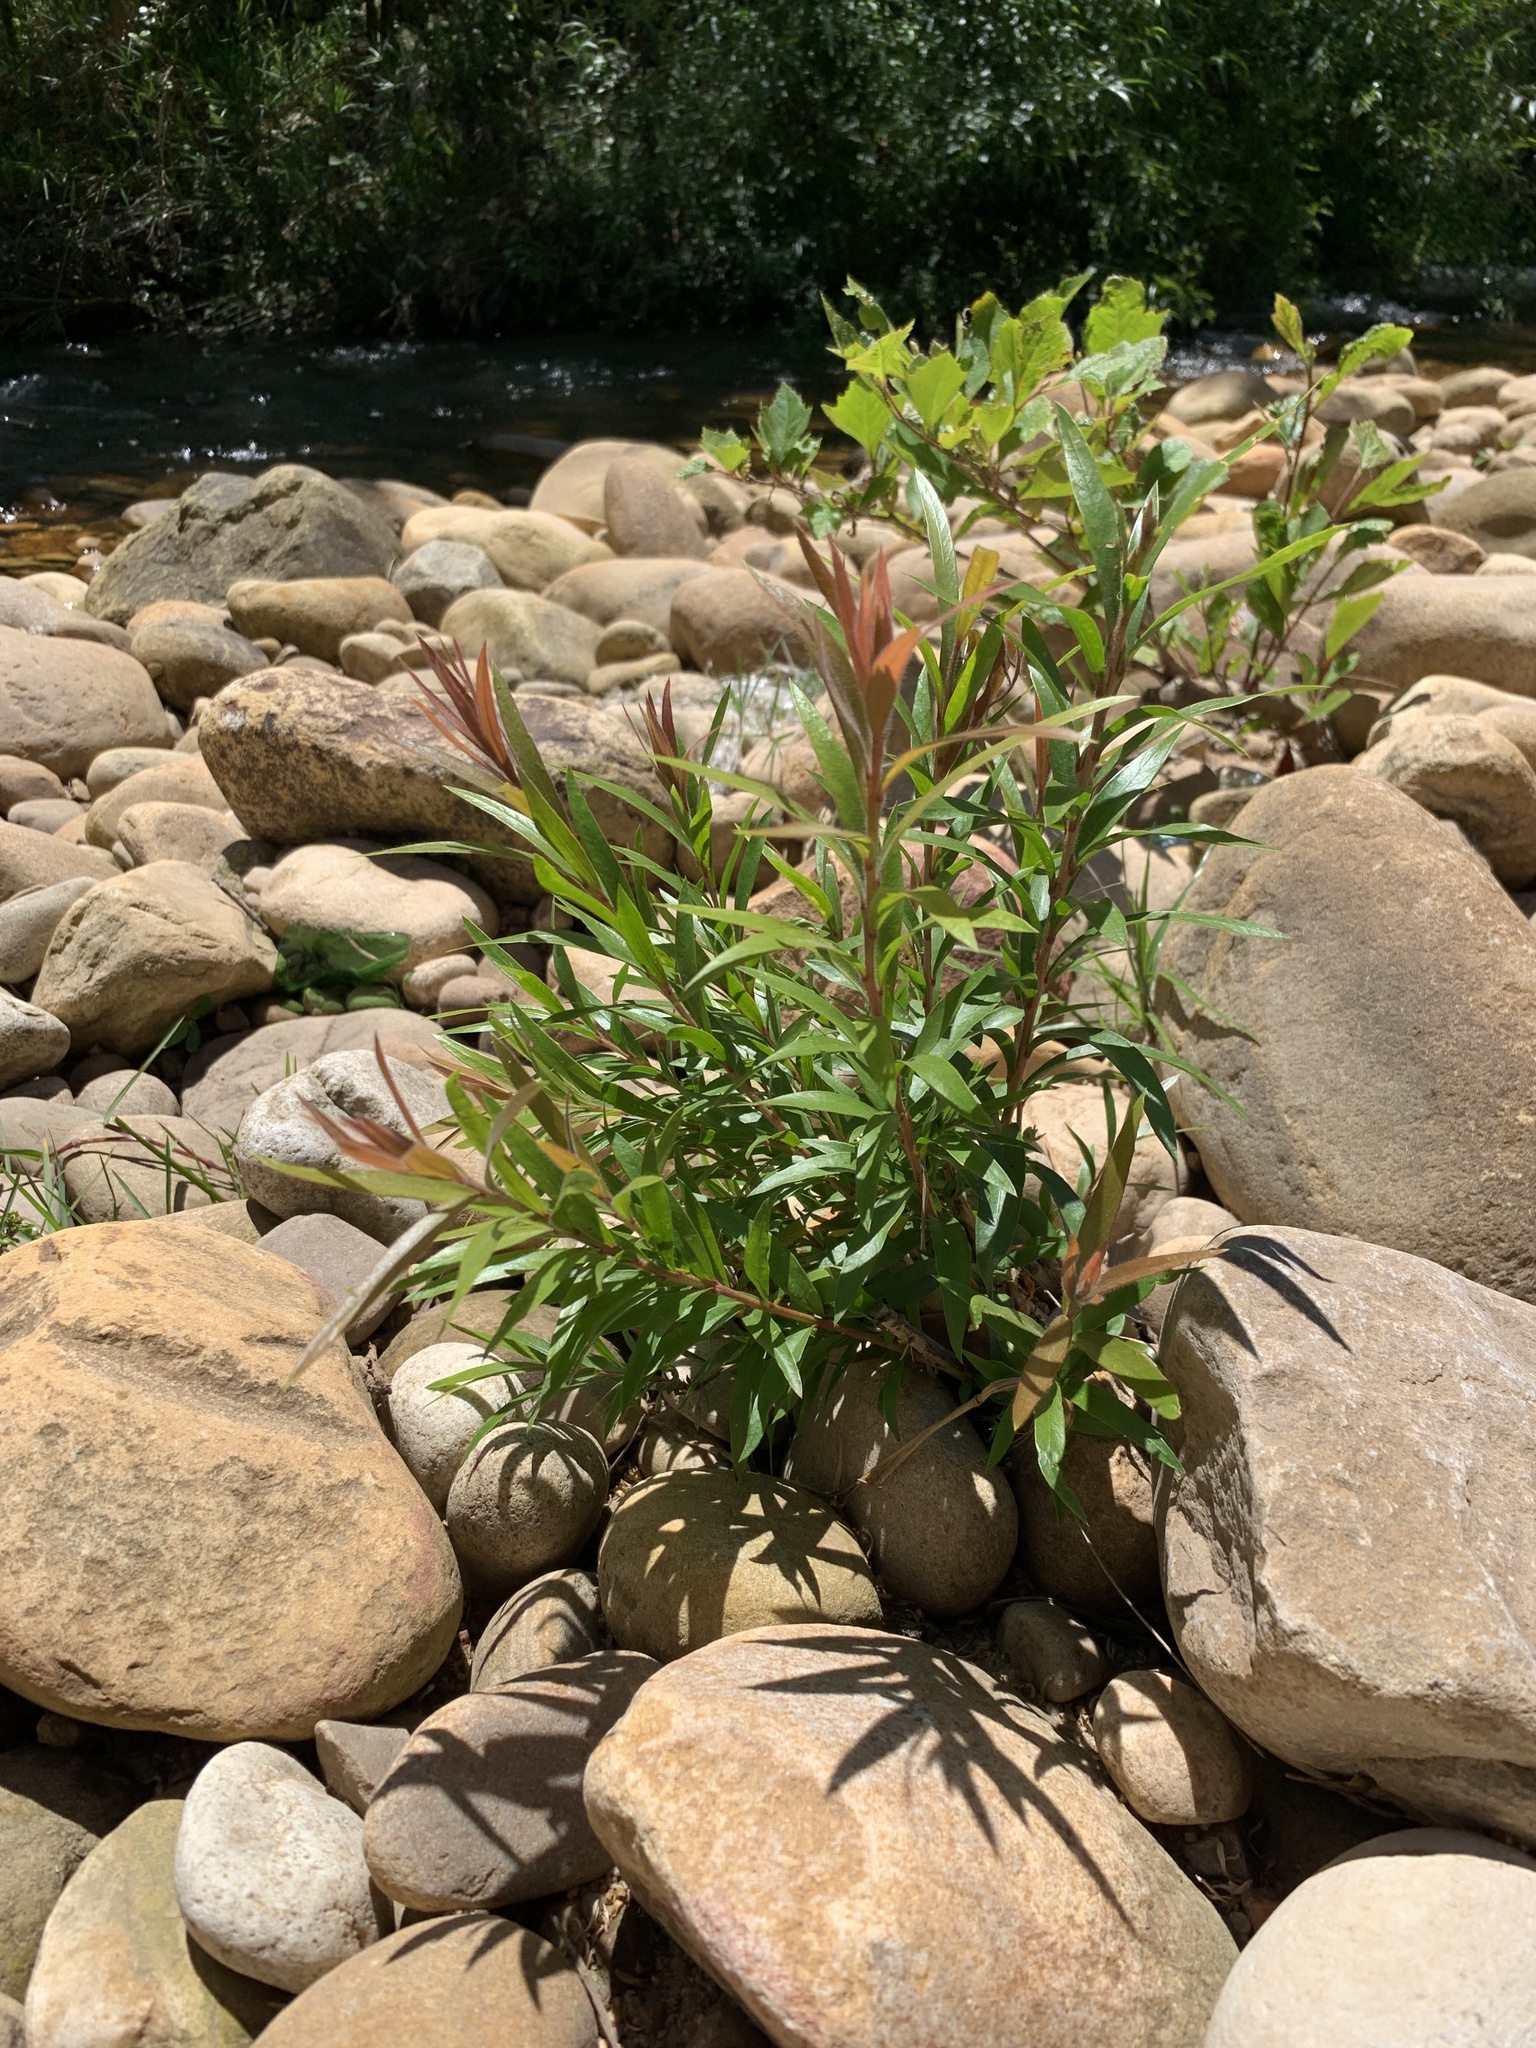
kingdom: Plantae
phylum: Tracheophyta
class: Magnoliopsida
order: Myrtales
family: Myrtaceae
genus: Callistemon
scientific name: Callistemon viminalis
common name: Drooping bottlebrush
